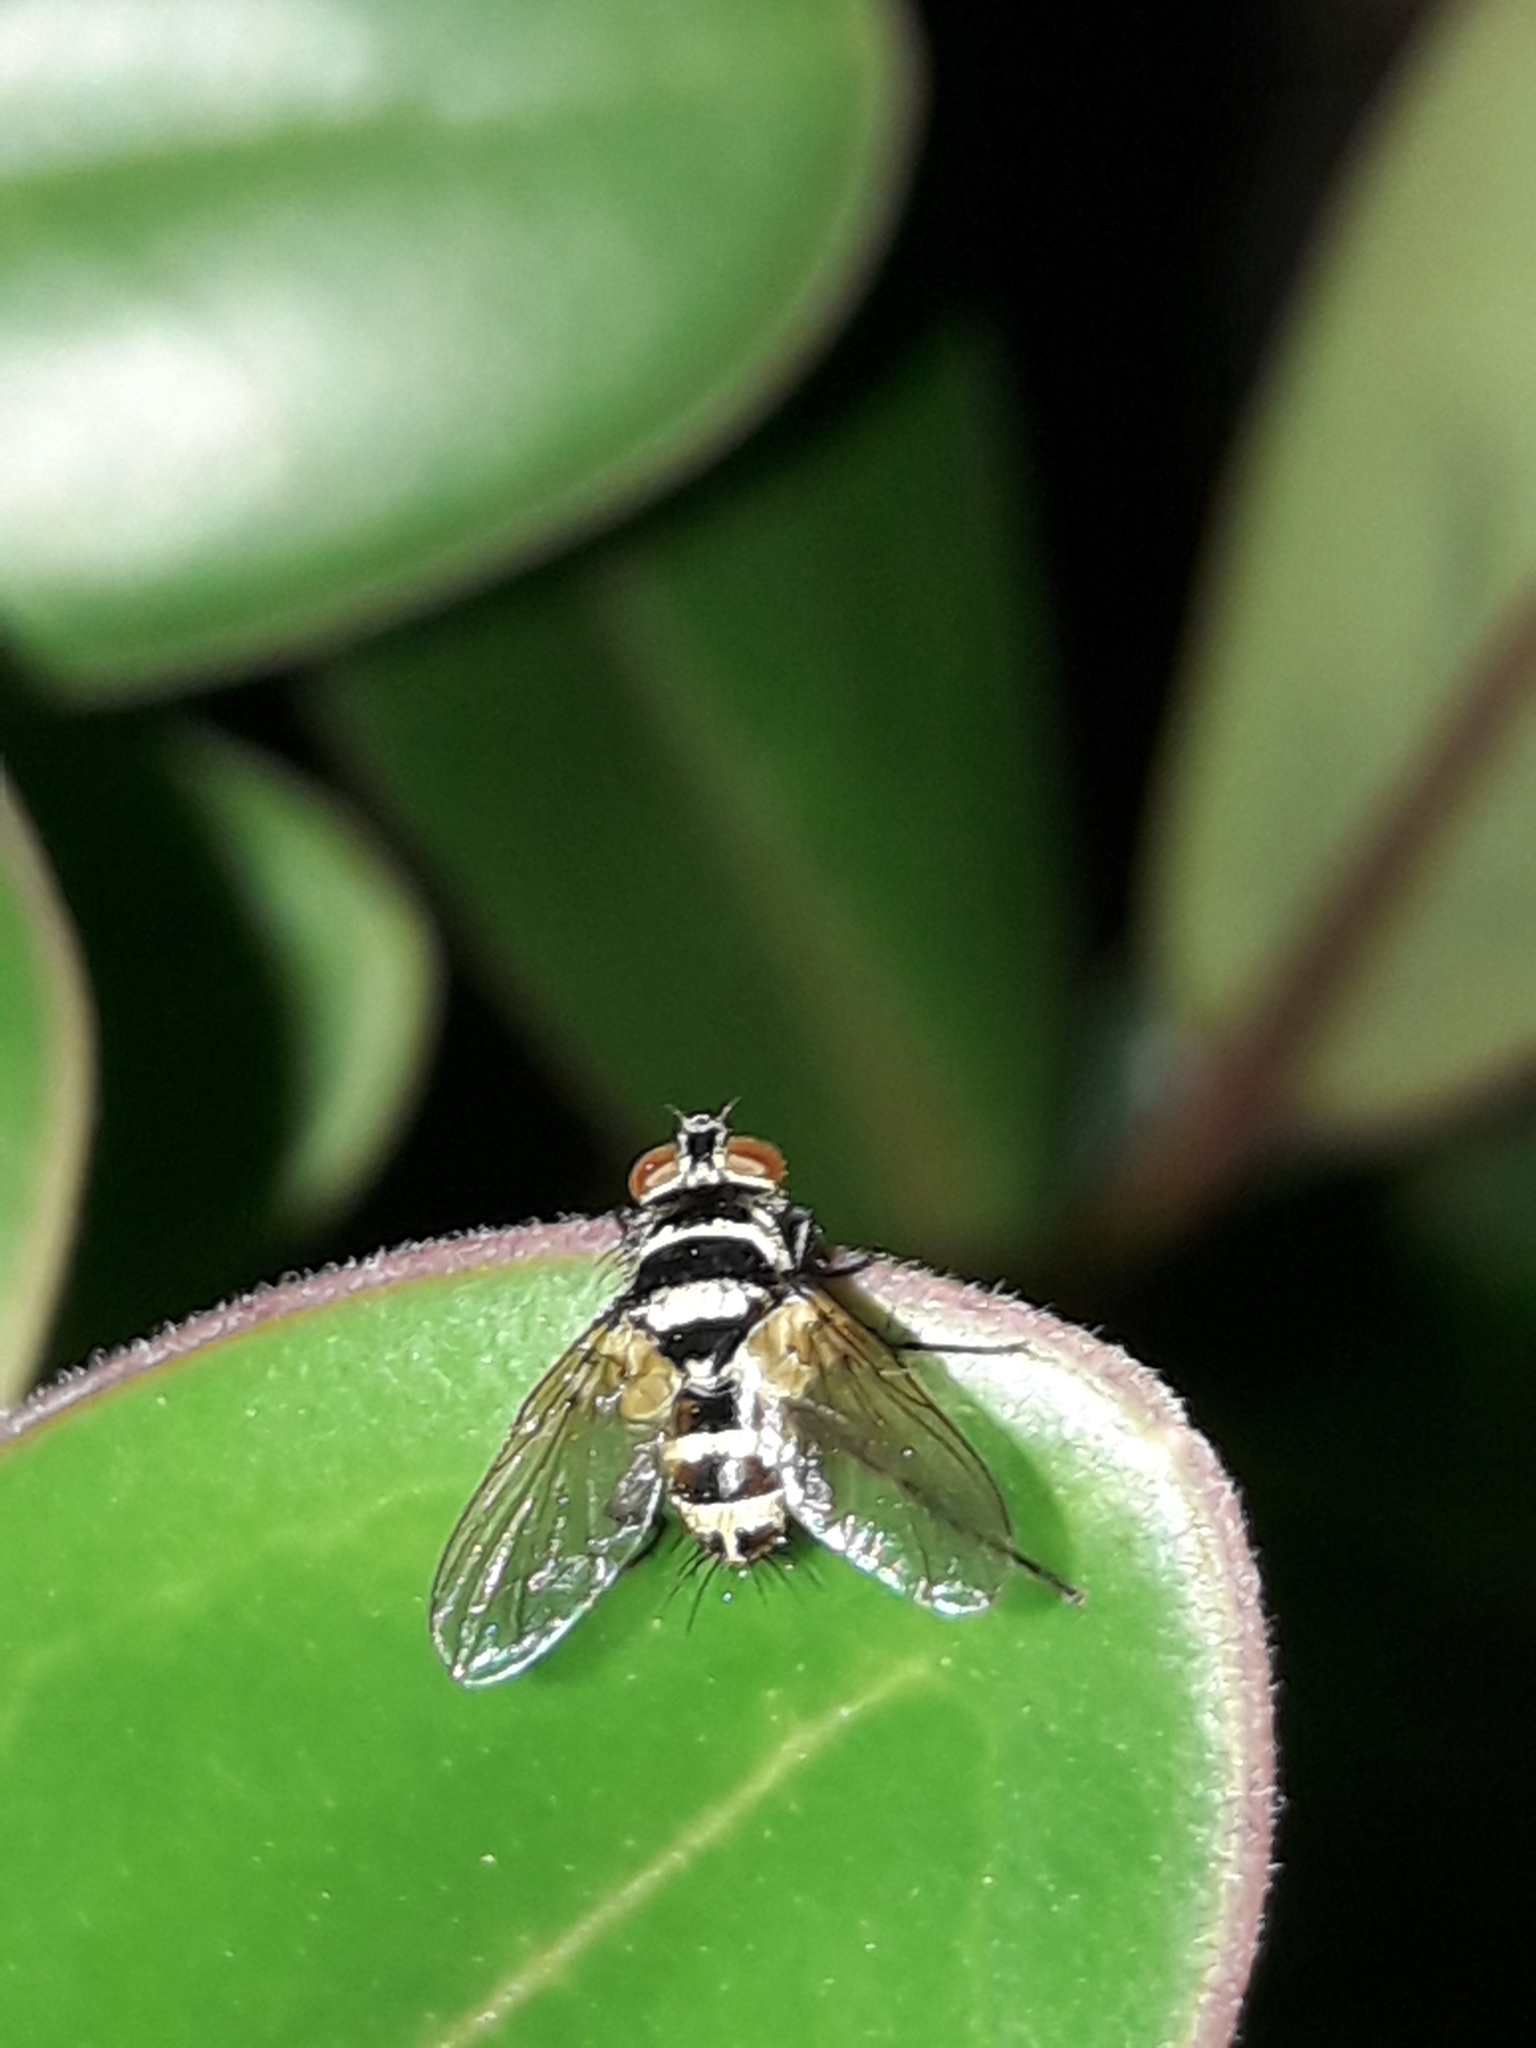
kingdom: Animalia
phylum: Arthropoda
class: Insecta
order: Diptera
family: Tachinidae
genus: Trigonospila
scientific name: Trigonospila brevifacies
